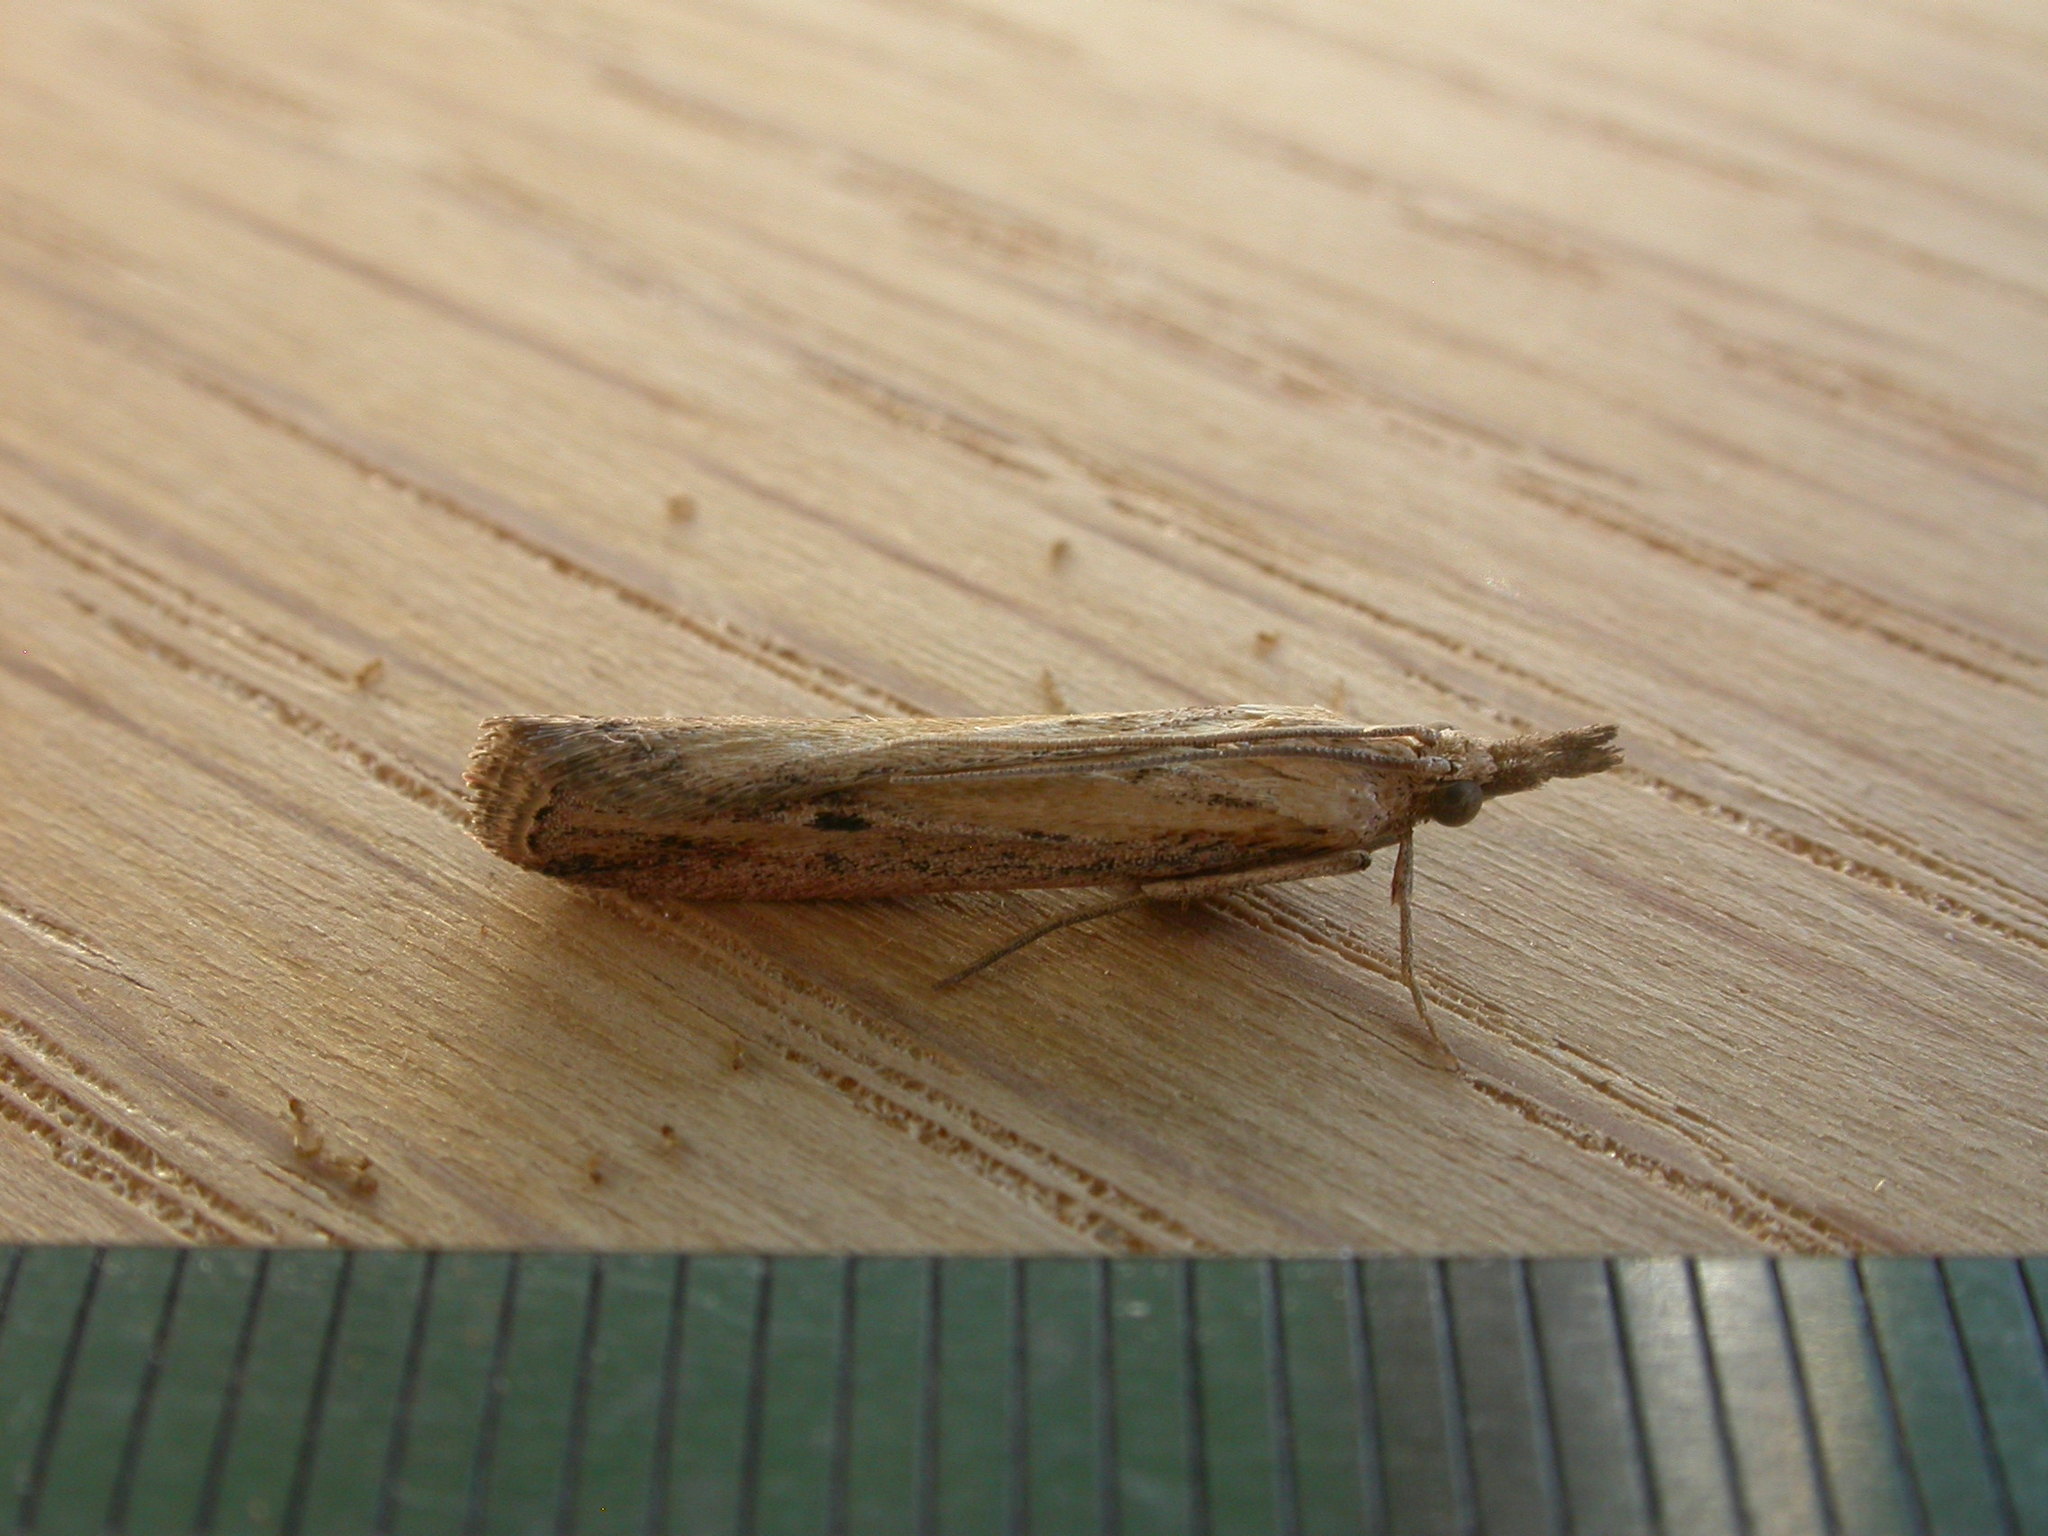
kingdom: Animalia
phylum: Arthropoda
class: Insecta
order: Lepidoptera
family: Pyralidae
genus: Faveria
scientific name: Faveria tritalis
